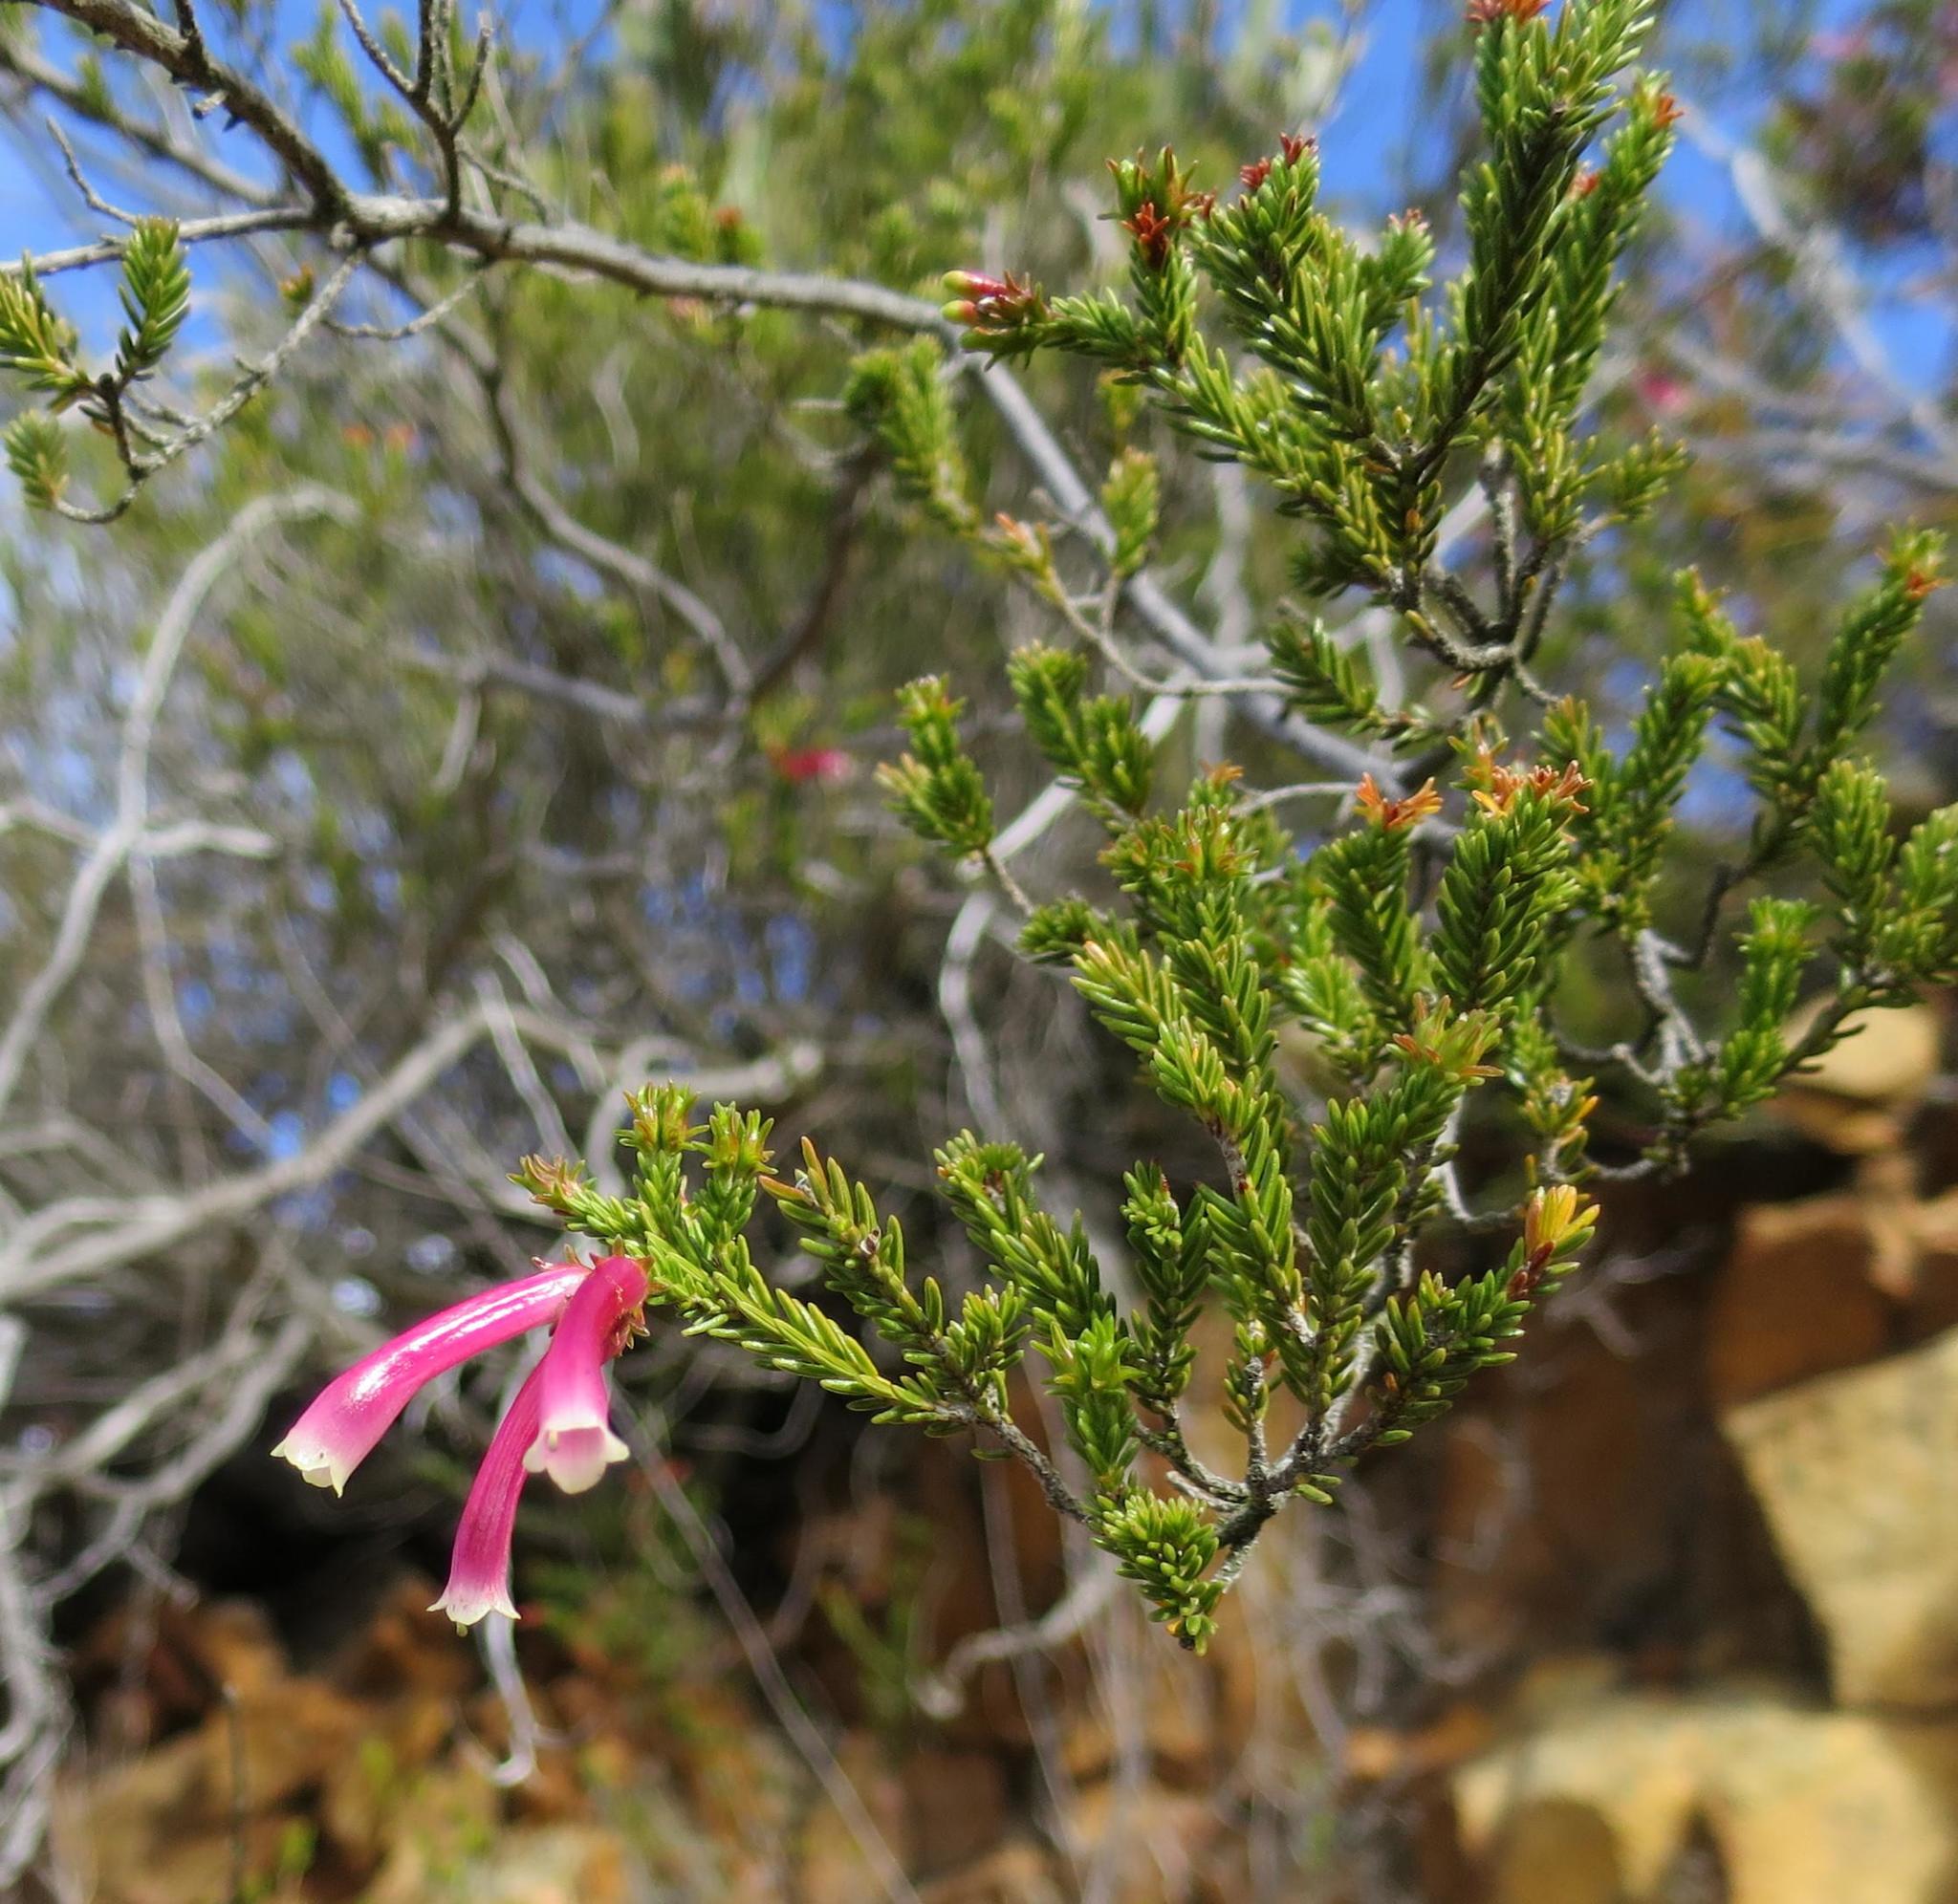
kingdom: Plantae
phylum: Tracheophyta
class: Magnoliopsida
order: Ericales
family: Ericaceae
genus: Erica
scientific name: Erica discolor
